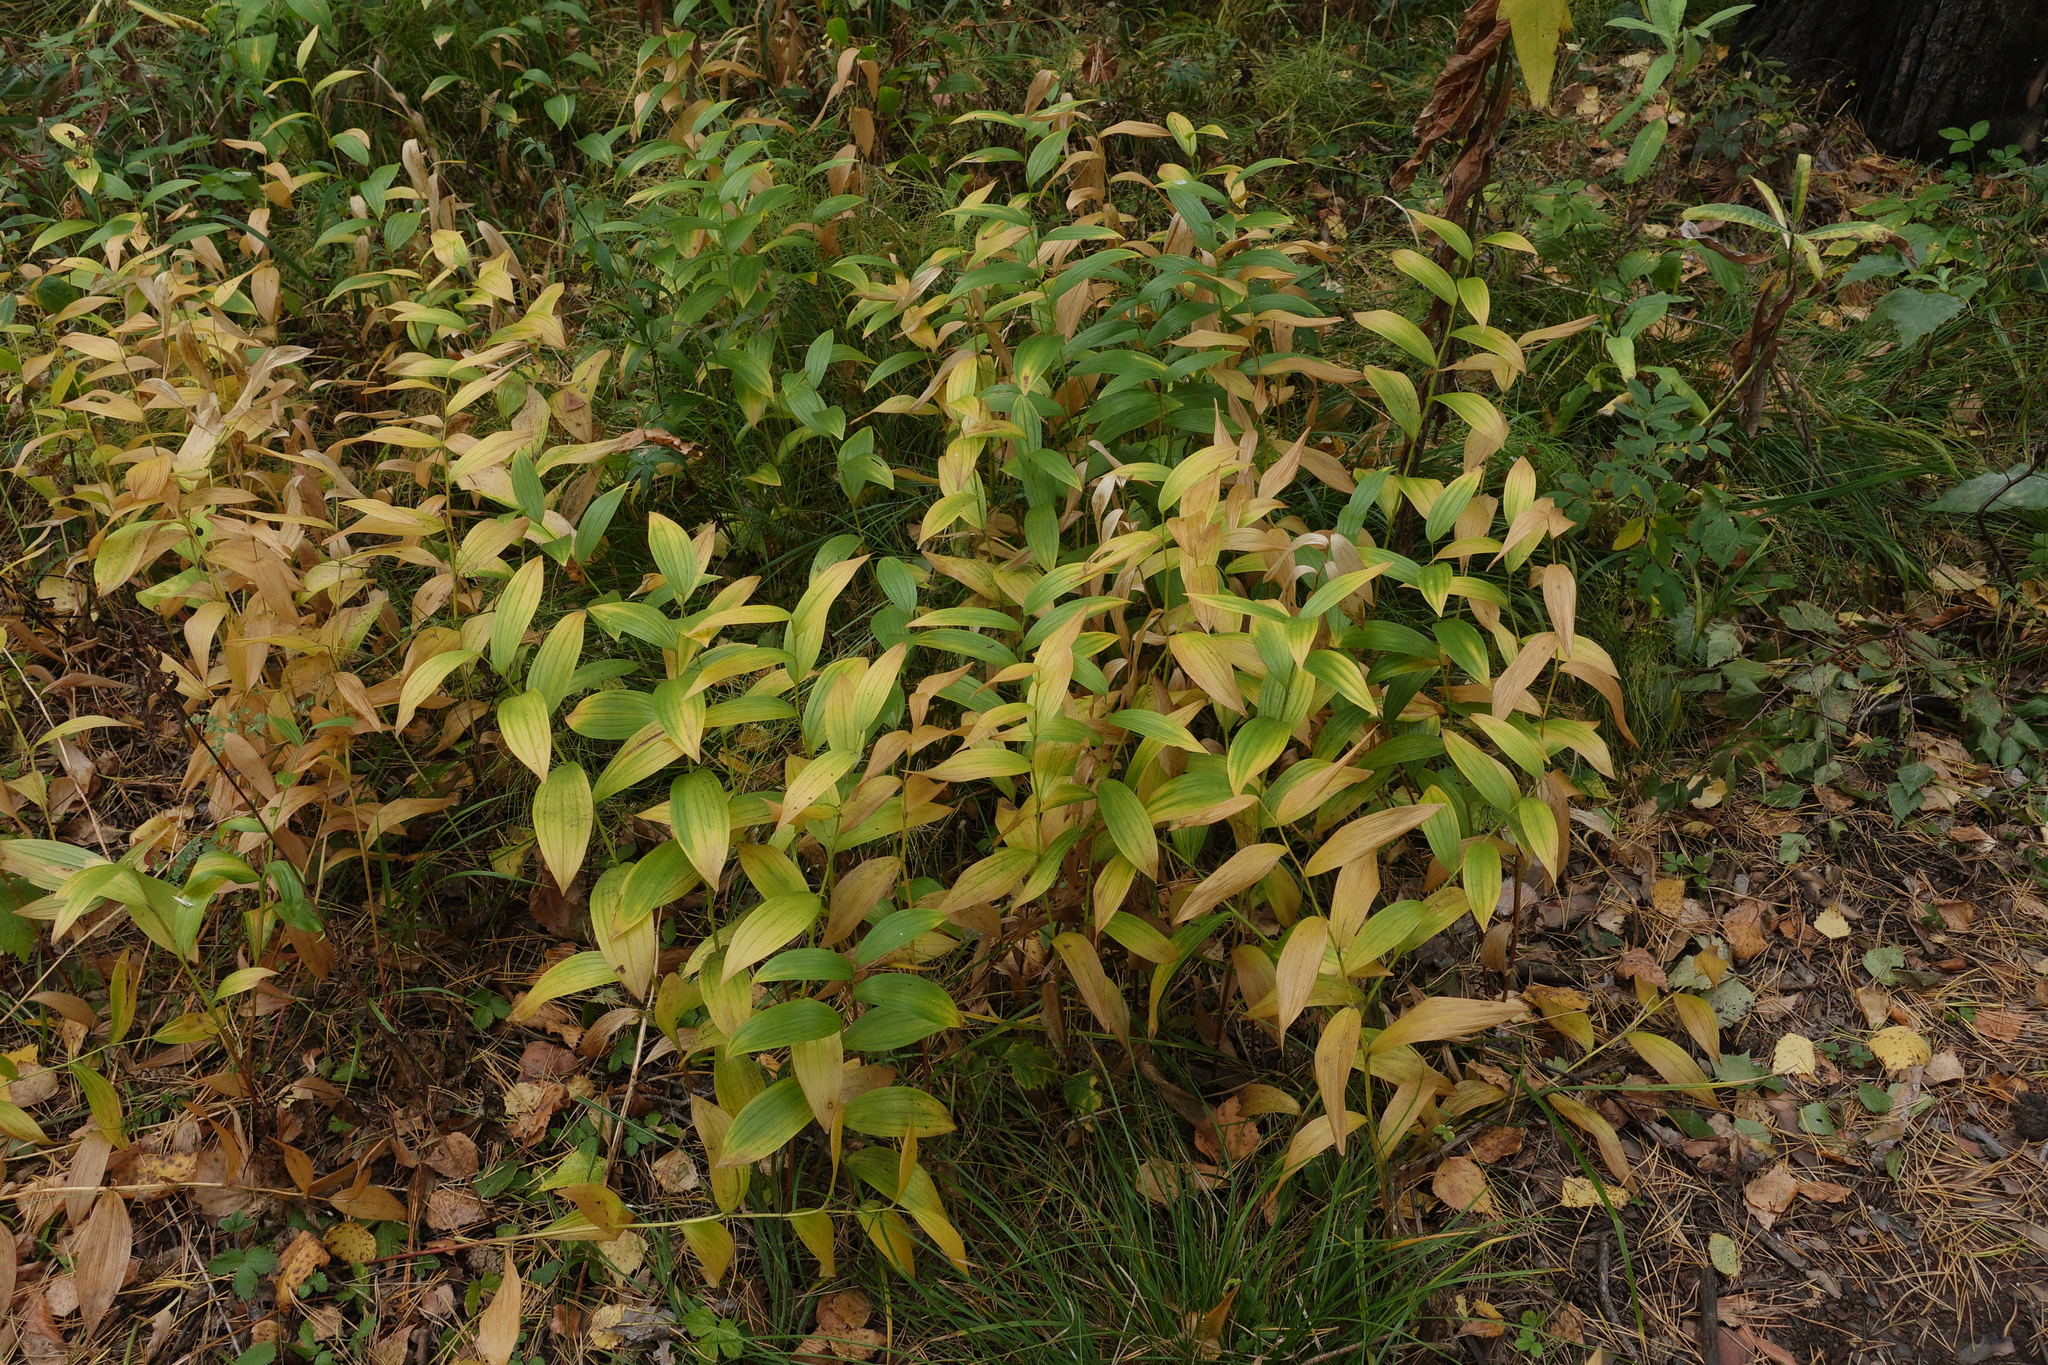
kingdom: Plantae
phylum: Tracheophyta
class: Liliopsida
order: Asparagales
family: Asparagaceae
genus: Polygonatum
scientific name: Polygonatum humile
